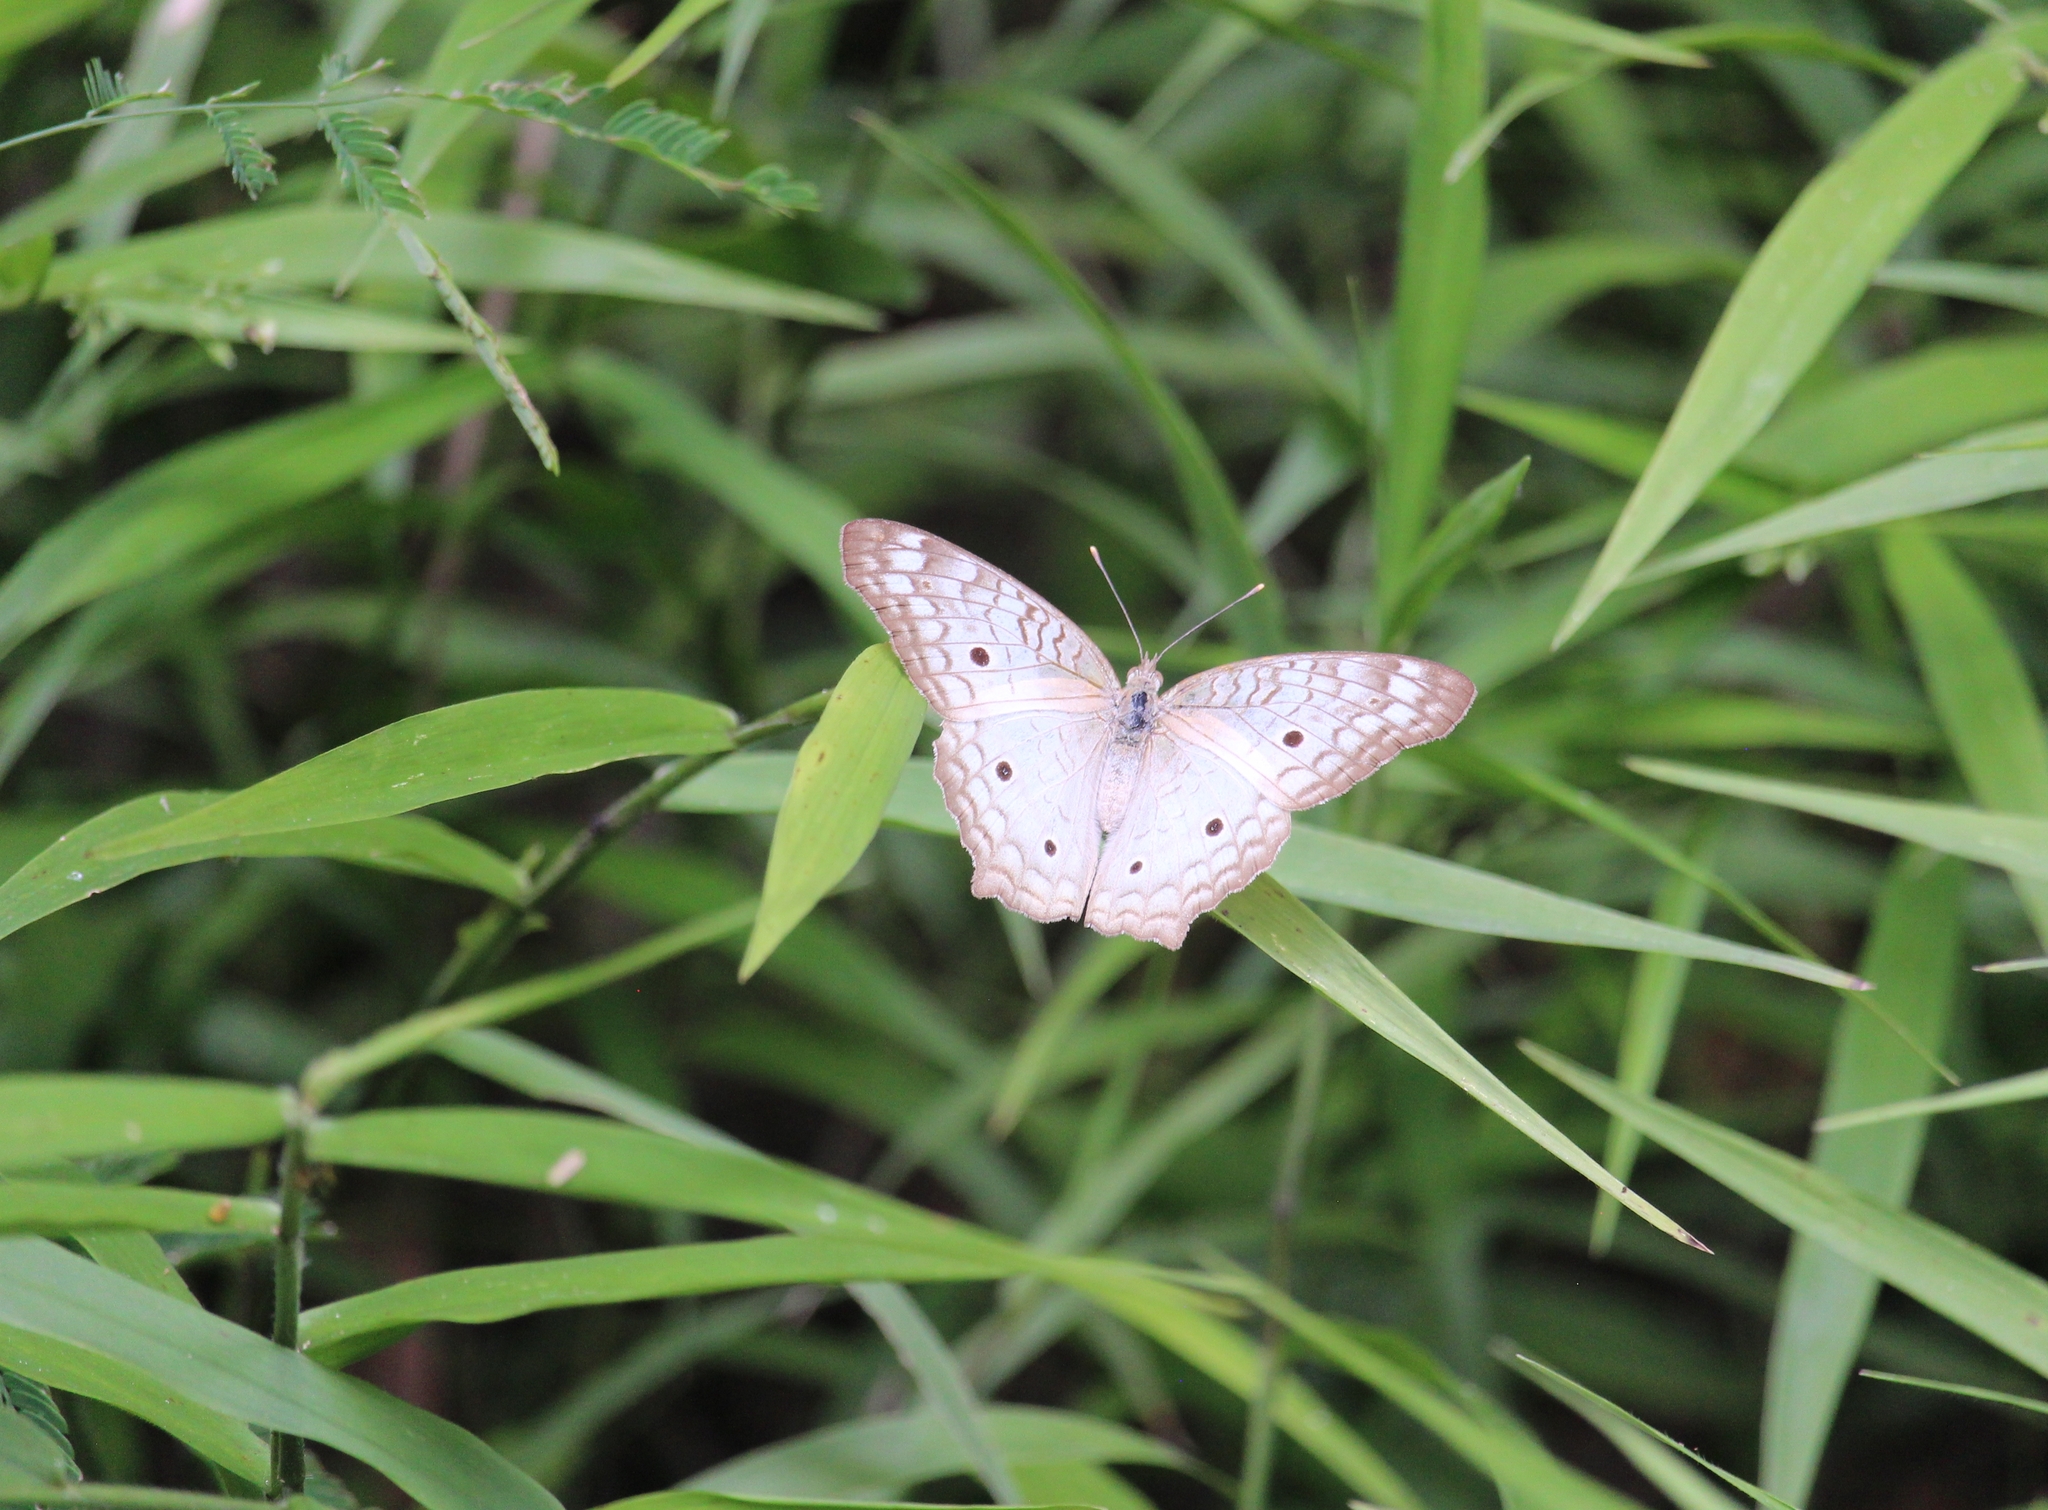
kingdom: Animalia
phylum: Arthropoda
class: Insecta
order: Lepidoptera
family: Nymphalidae
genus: Anartia
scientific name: Anartia jatrophae
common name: White peacock
